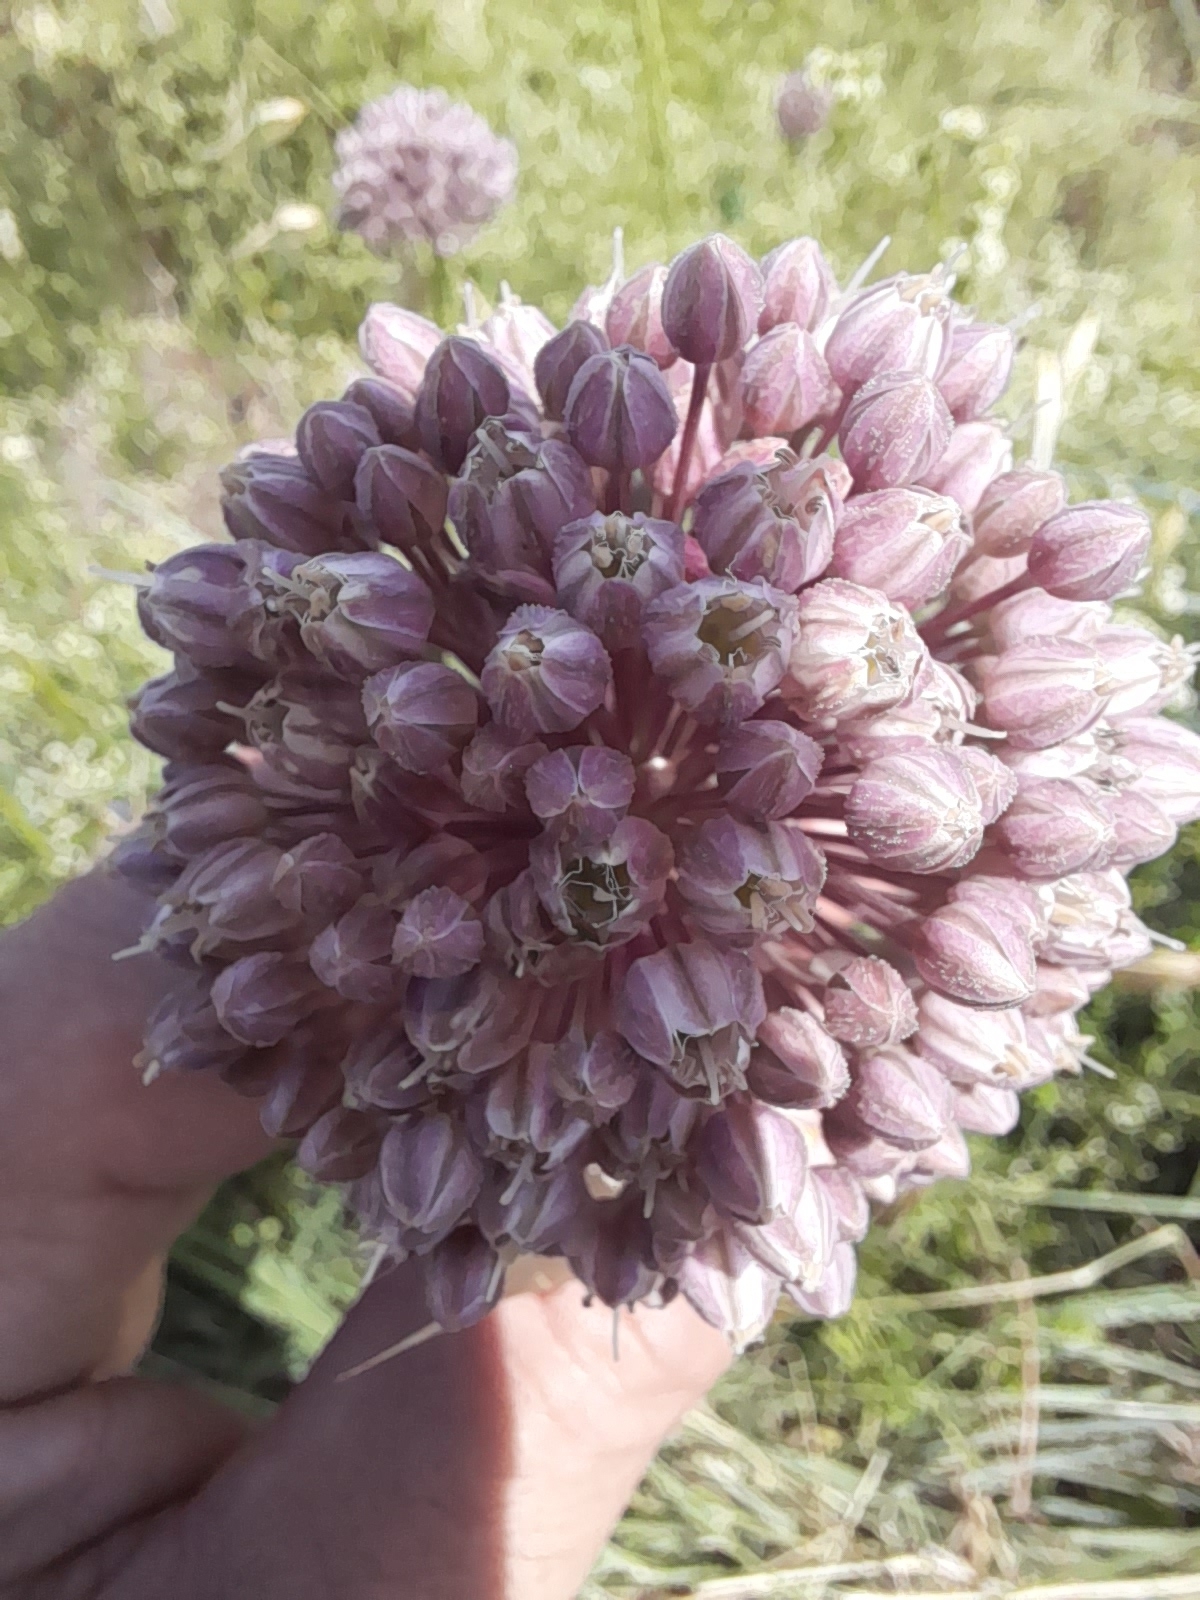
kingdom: Plantae
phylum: Tracheophyta
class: Liliopsida
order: Asparagales
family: Amaryllidaceae
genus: Allium
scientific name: Allium ampeloprasum
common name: Wild leek
